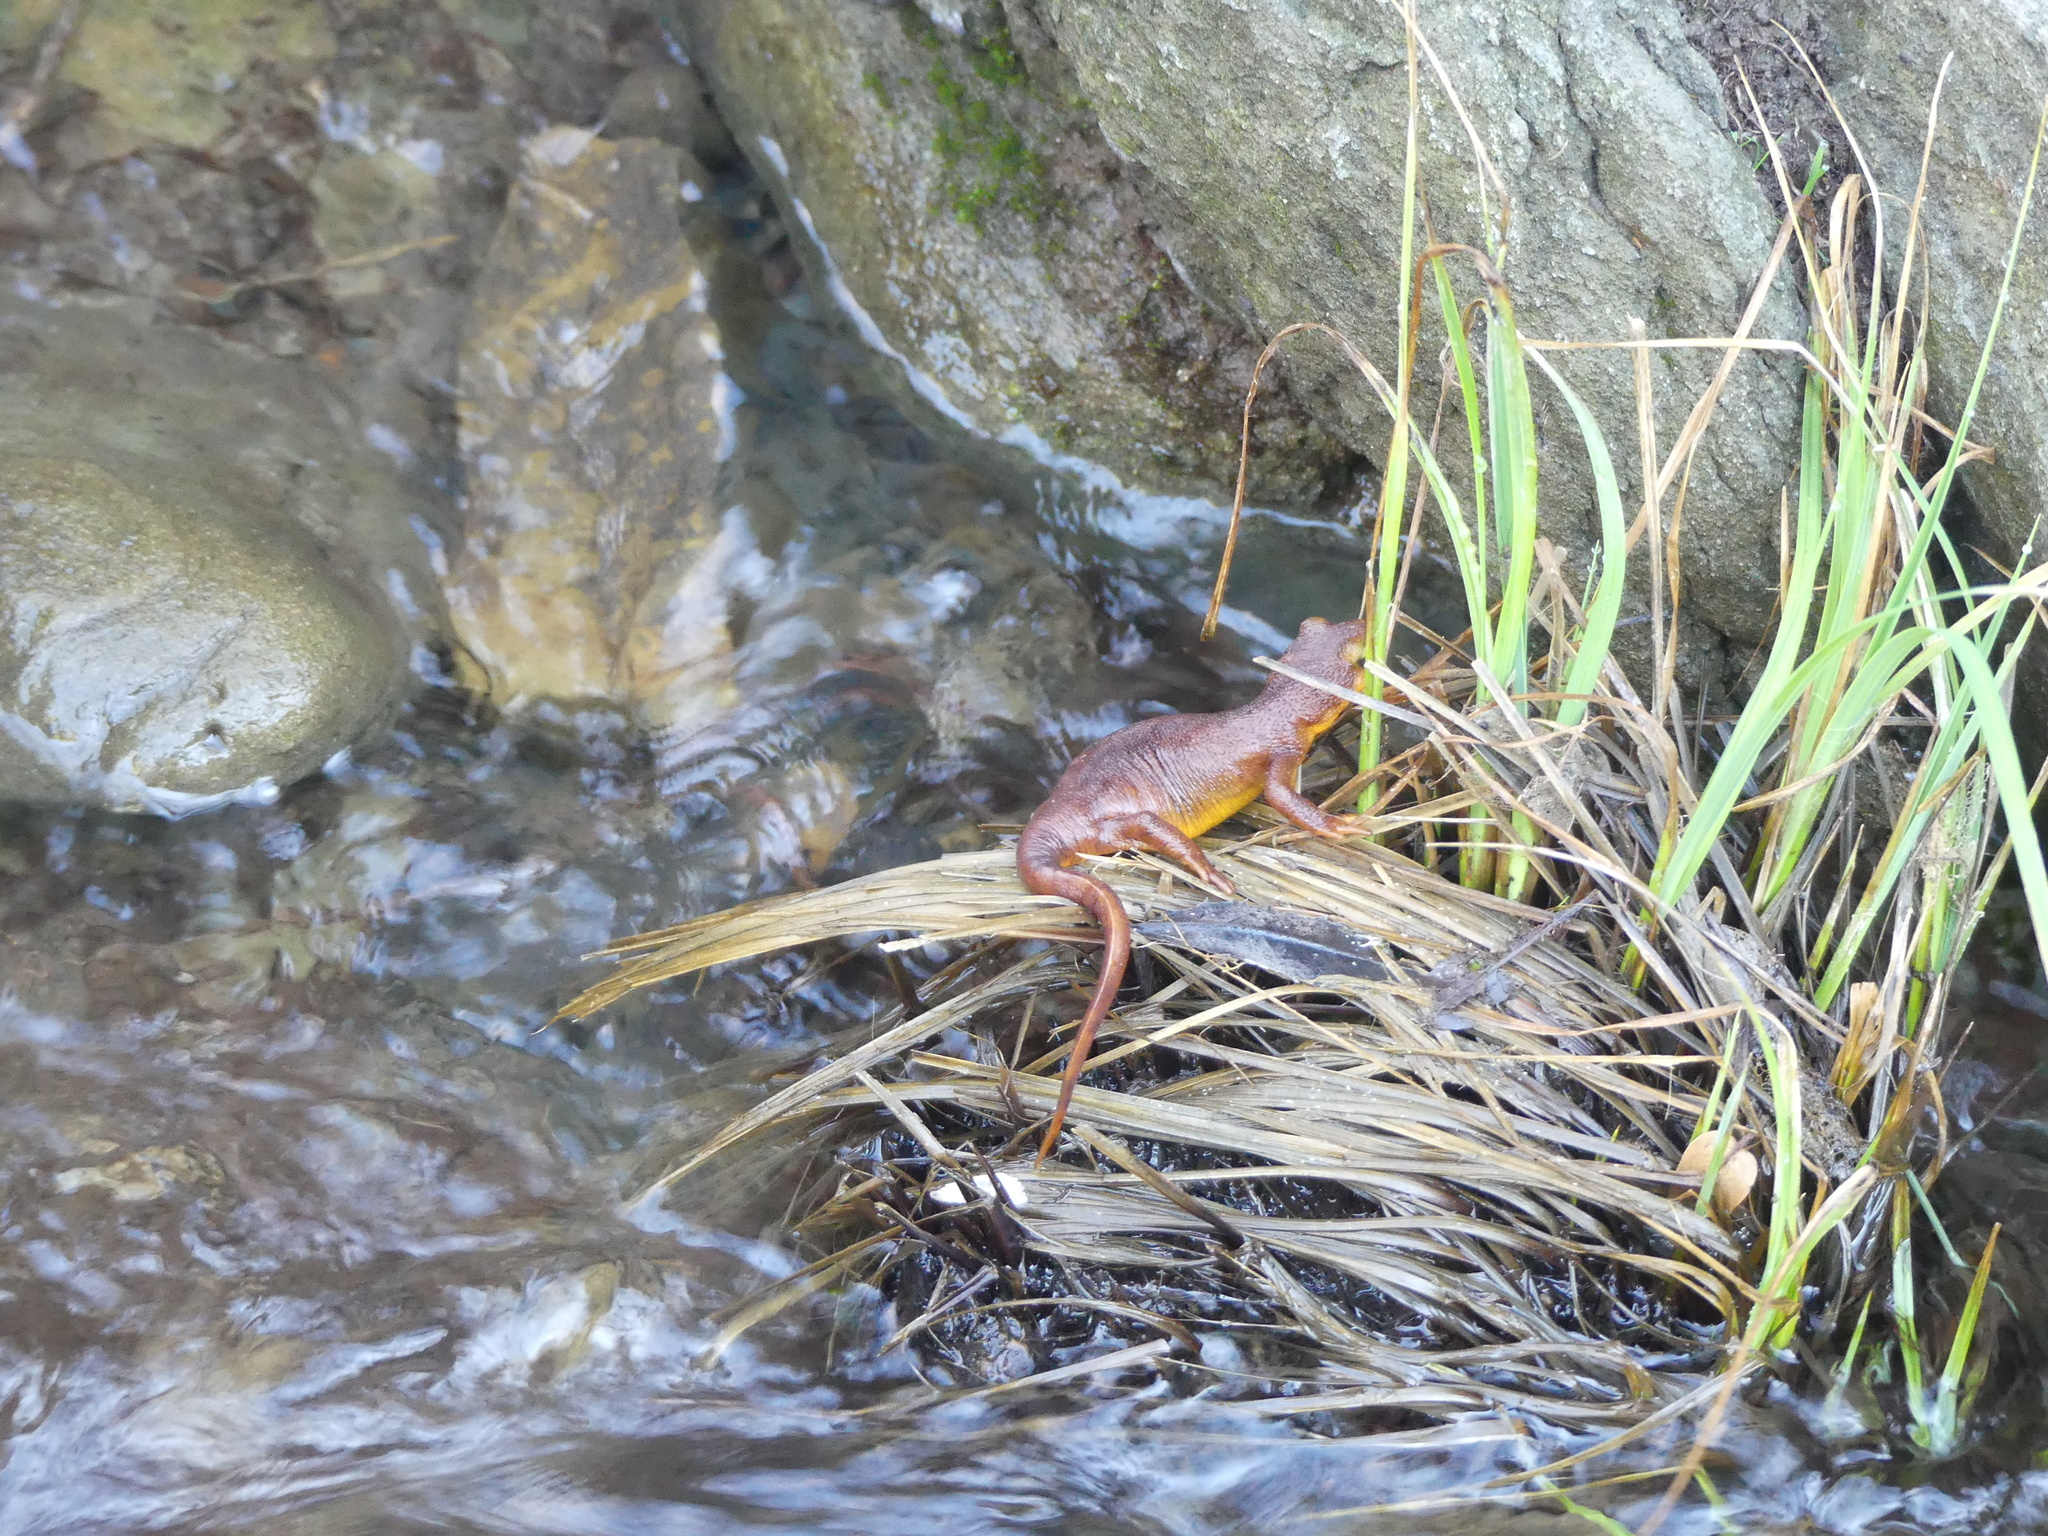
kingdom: Animalia
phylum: Chordata
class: Amphibia
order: Caudata
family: Salamandridae
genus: Taricha
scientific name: Taricha torosa
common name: California newt
